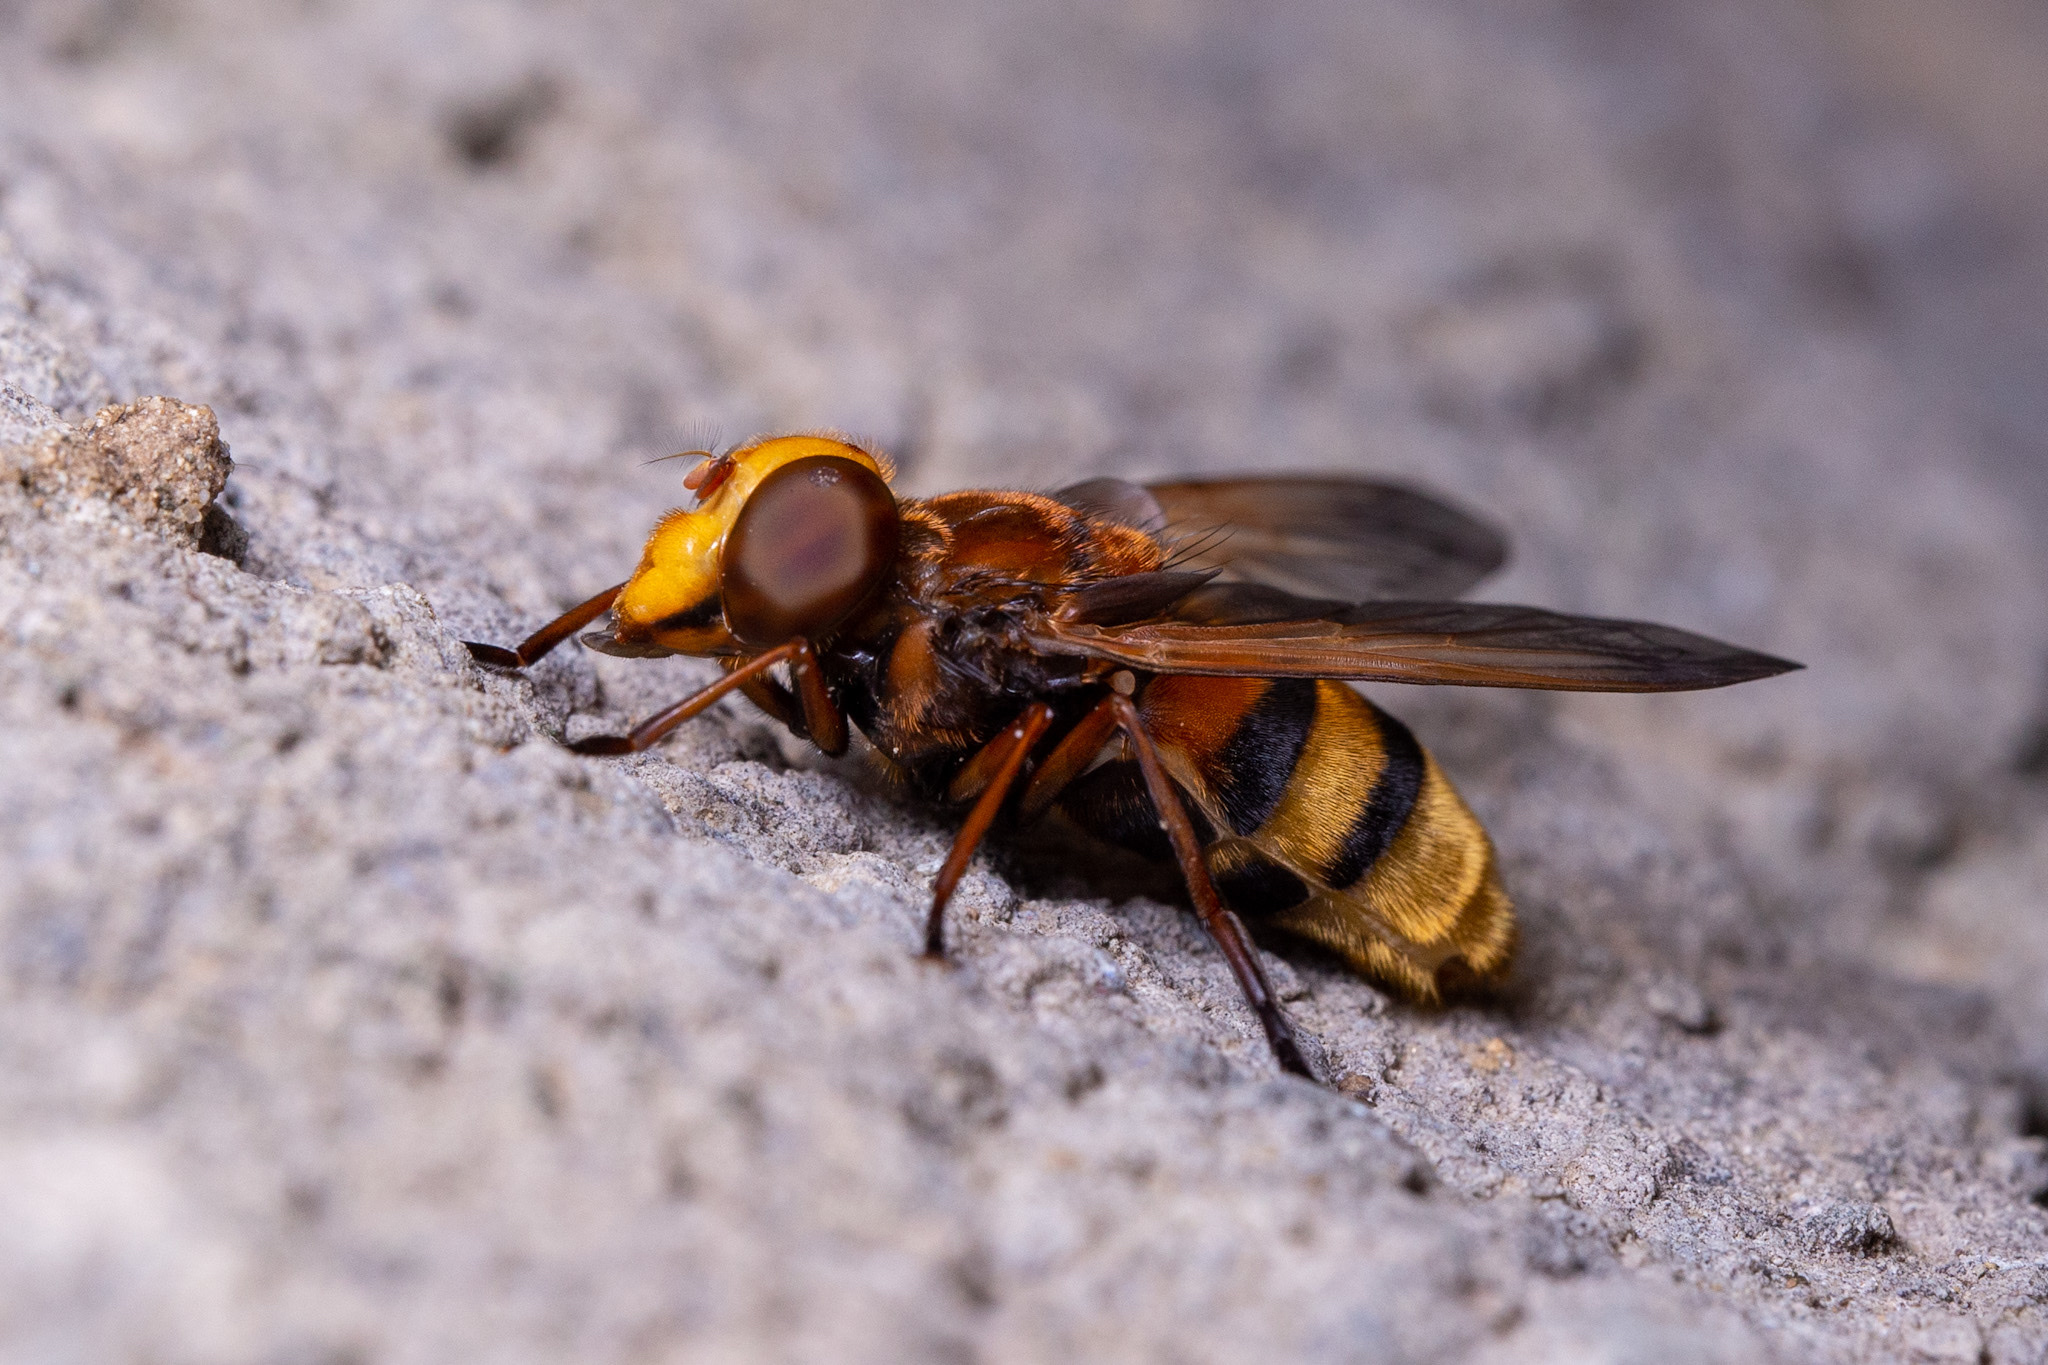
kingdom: Animalia
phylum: Arthropoda
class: Insecta
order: Diptera
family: Syrphidae
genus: Volucella
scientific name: Volucella zonaria
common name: Hornet hoverfly
